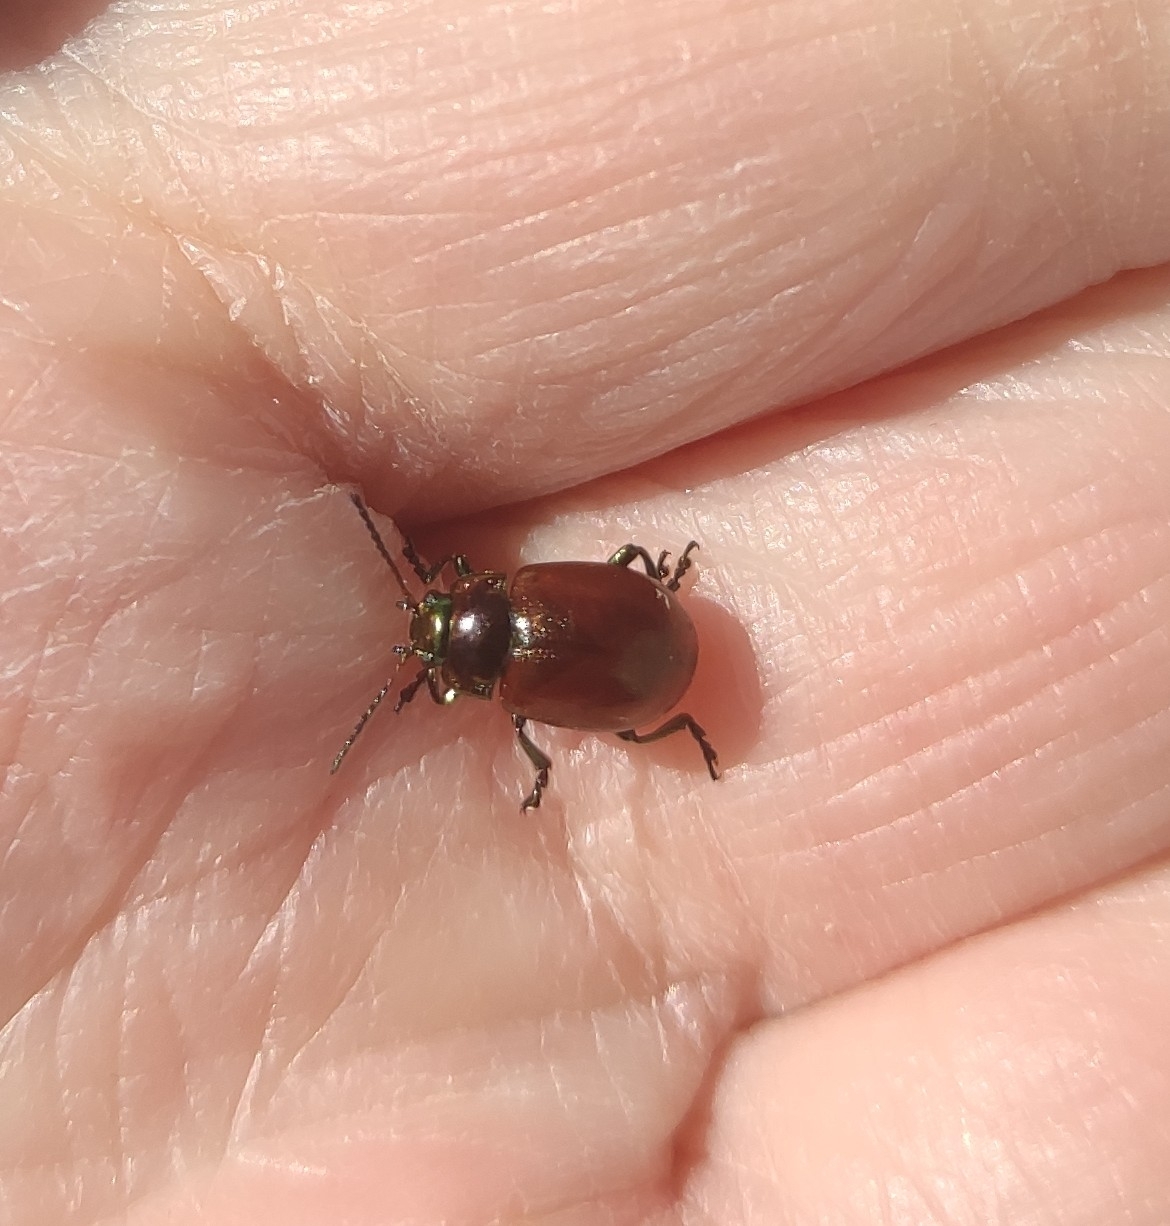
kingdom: Animalia
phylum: Arthropoda
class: Insecta
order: Coleoptera
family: Chrysomelidae
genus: Chrysomela
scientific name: Chrysomela polita
